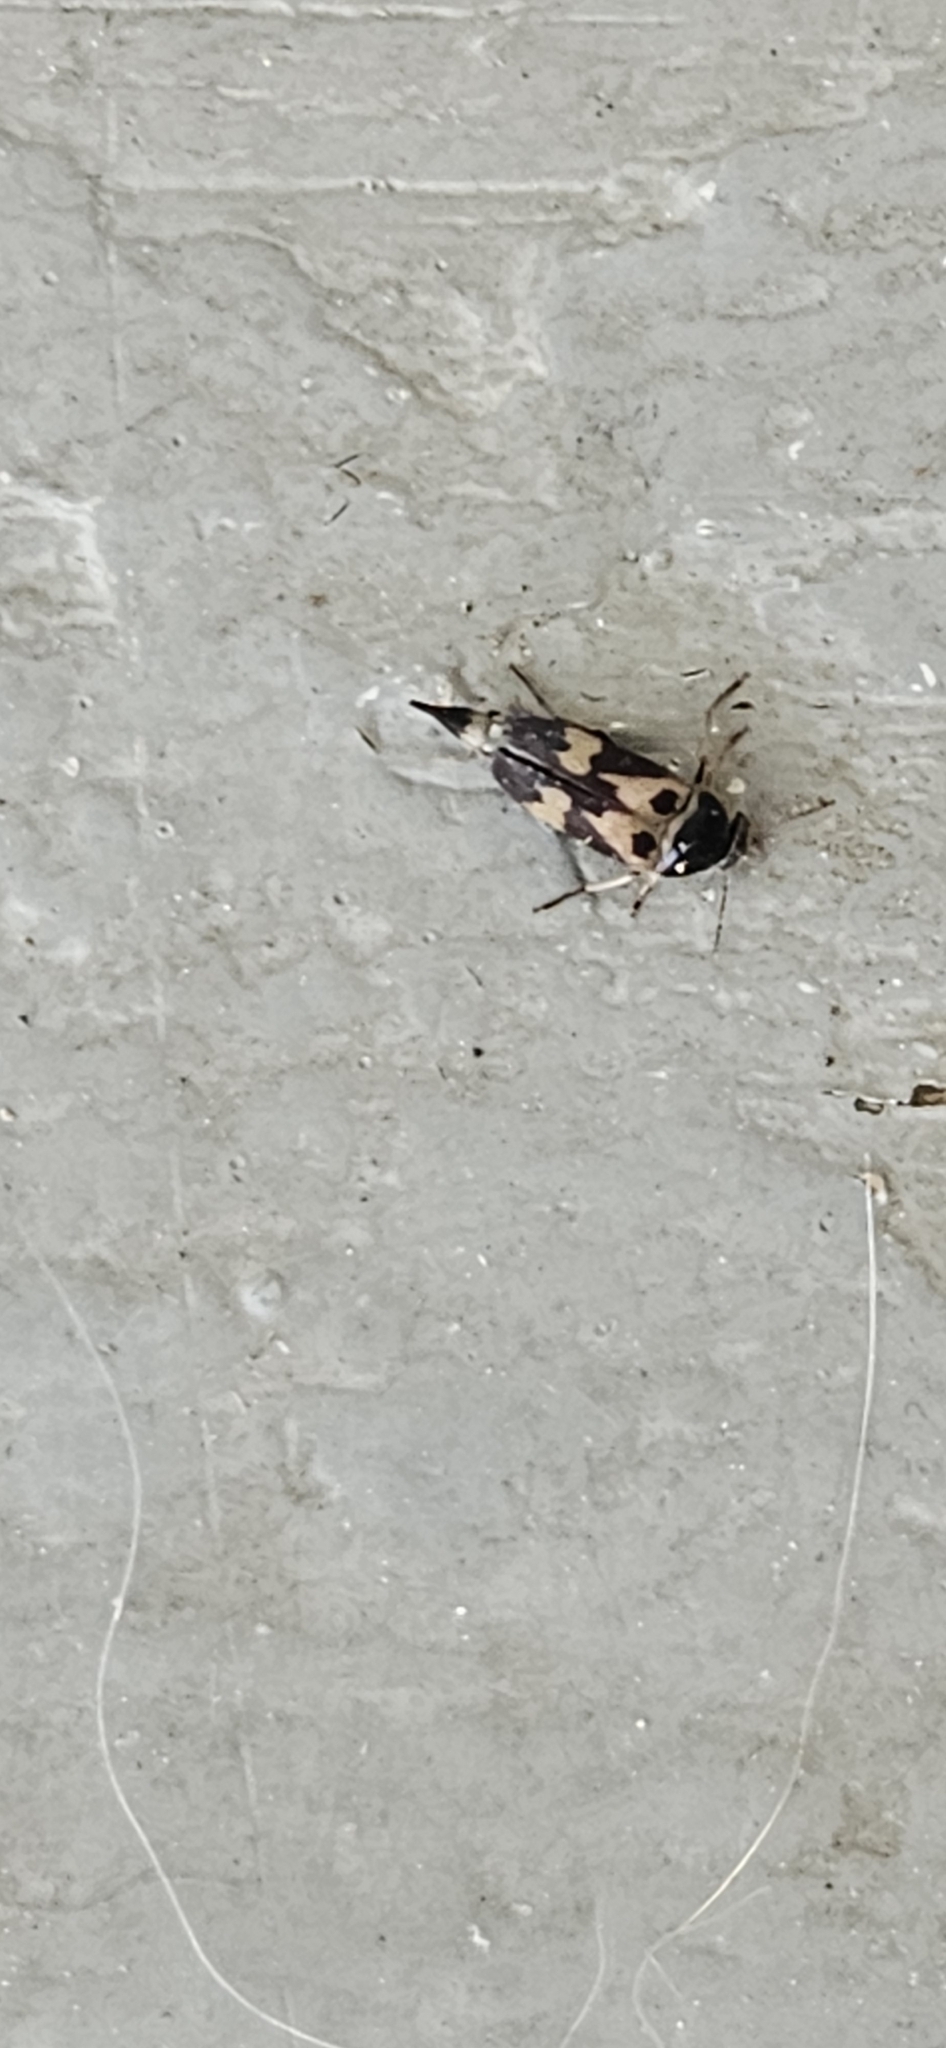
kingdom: Animalia
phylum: Arthropoda
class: Insecta
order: Coleoptera
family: Mordellidae
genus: Glipa
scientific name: Glipa oculata
